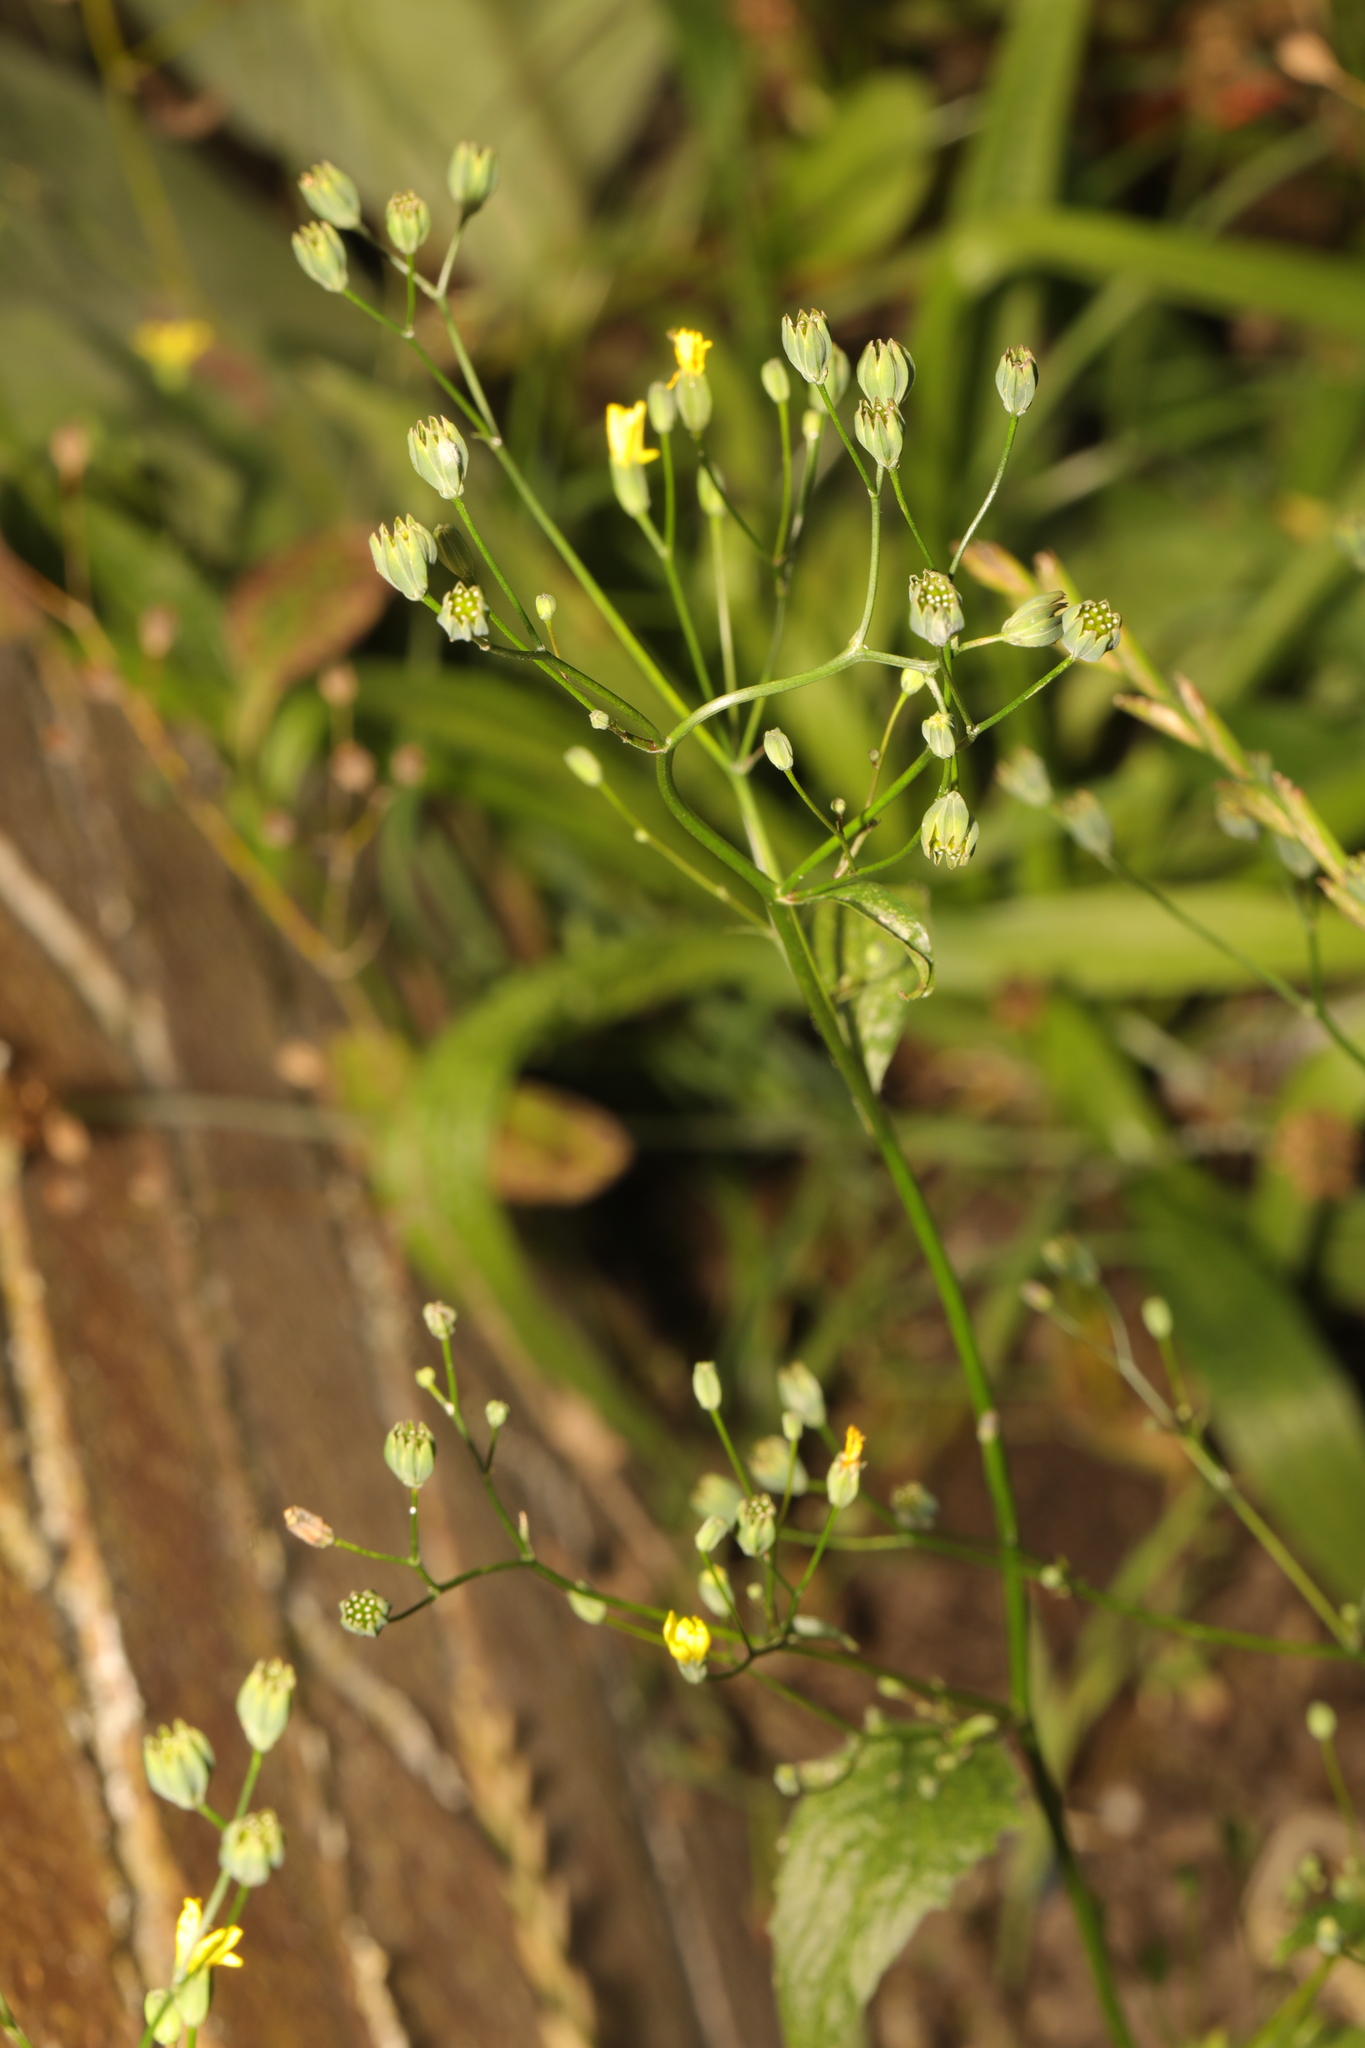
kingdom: Plantae
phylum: Tracheophyta
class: Magnoliopsida
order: Asterales
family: Asteraceae
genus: Lapsana
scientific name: Lapsana communis
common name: Nipplewort
